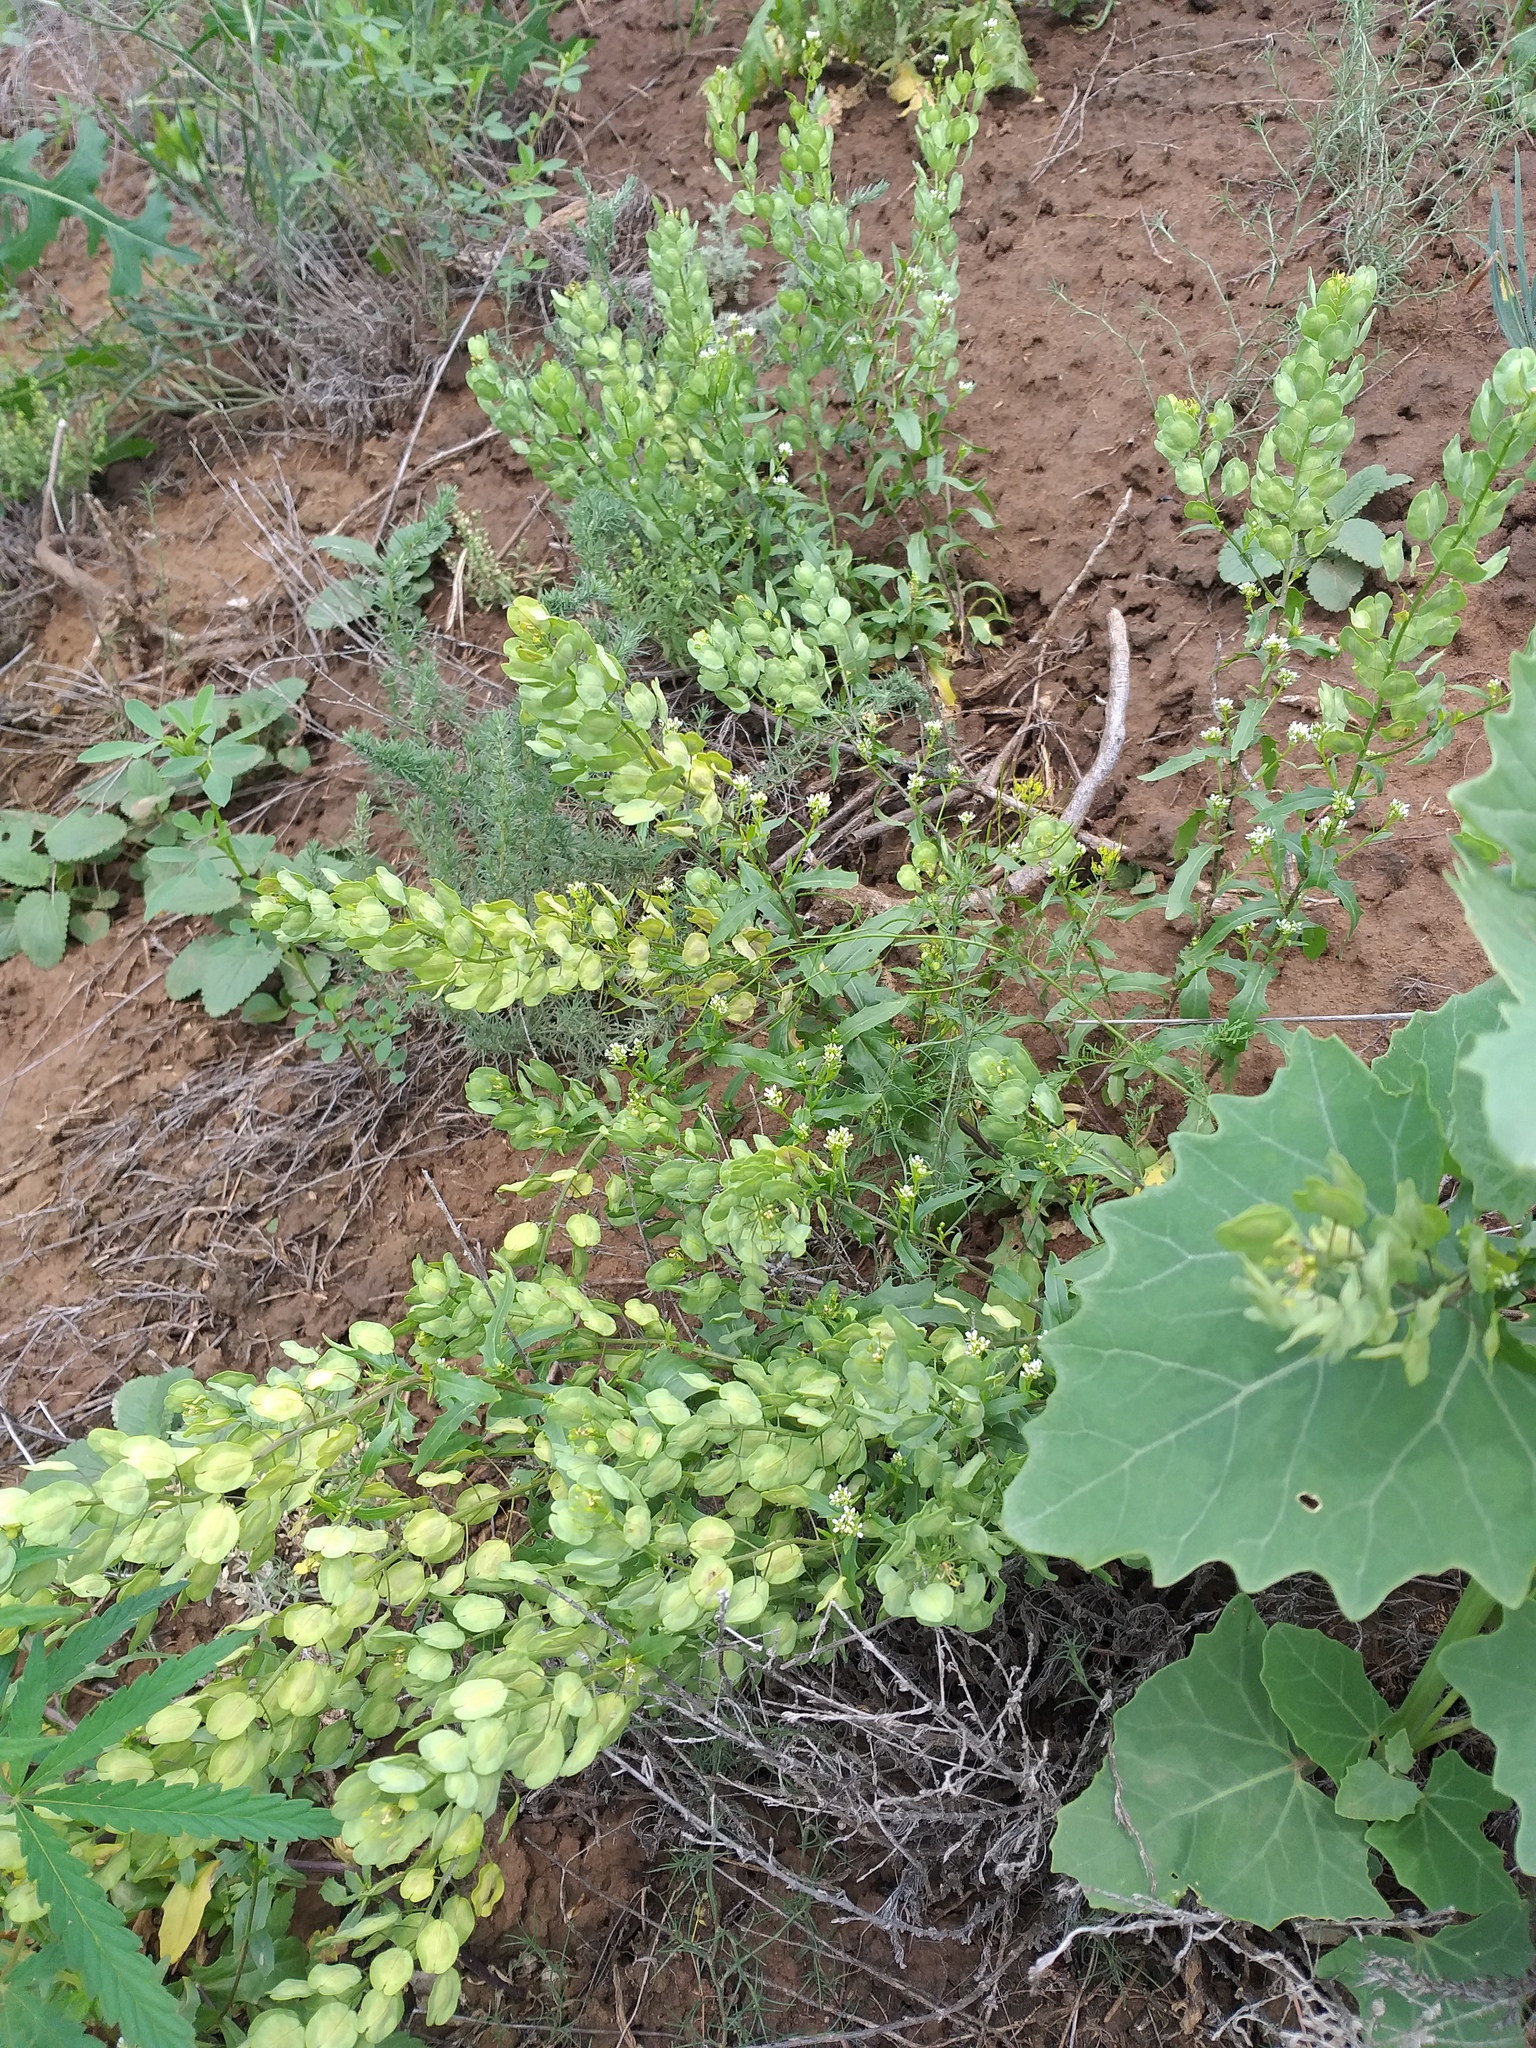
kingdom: Plantae
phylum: Tracheophyta
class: Magnoliopsida
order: Brassicales
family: Brassicaceae
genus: Thlaspi
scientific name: Thlaspi arvense
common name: Field pennycress
